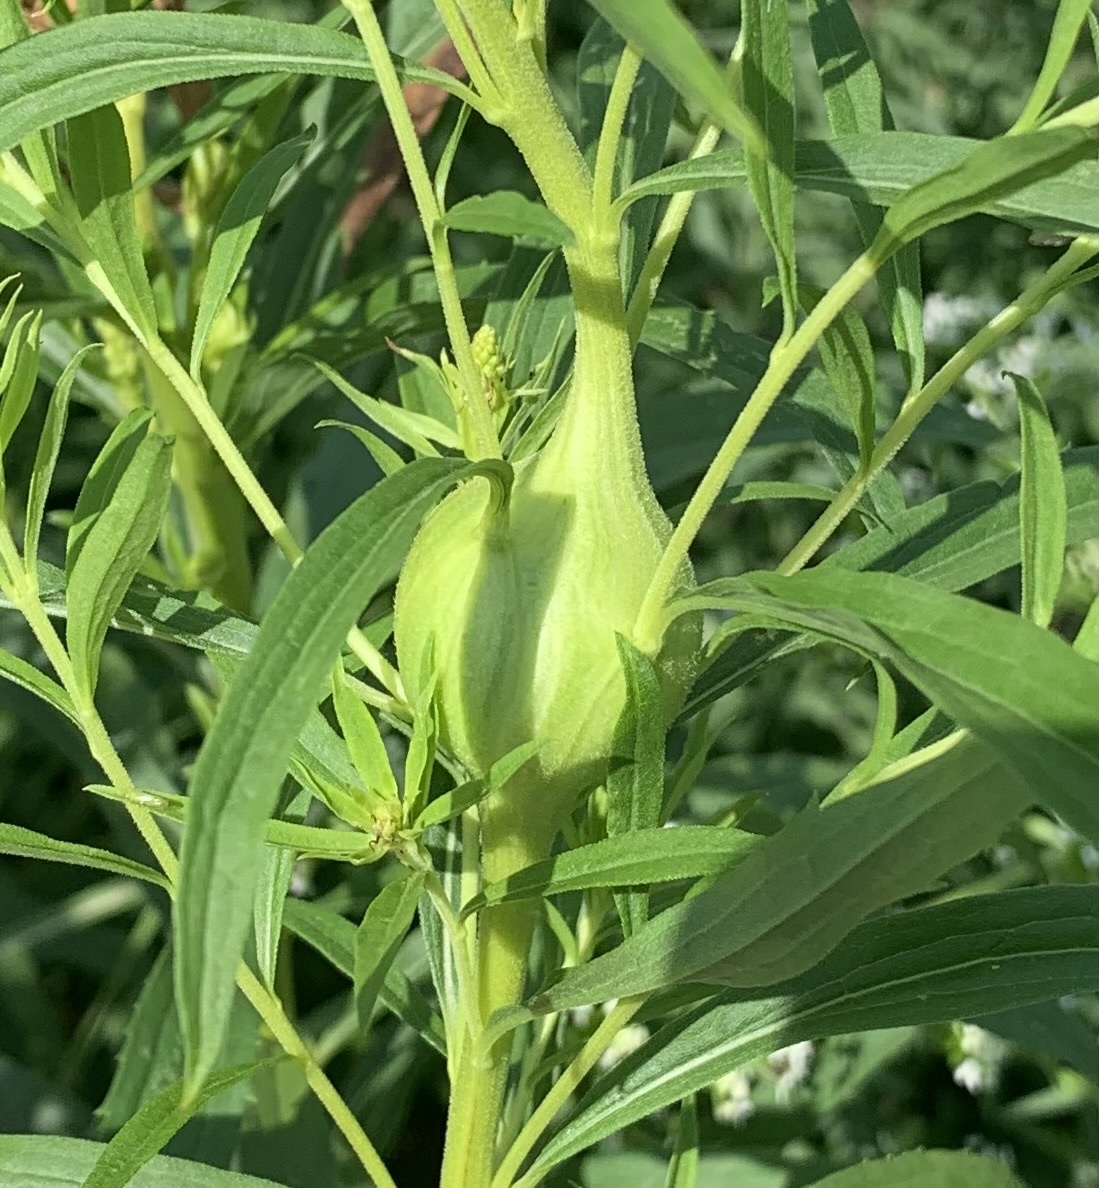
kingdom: Animalia
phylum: Arthropoda
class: Insecta
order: Diptera
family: Tephritidae
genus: Eurosta
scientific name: Eurosta solidaginis
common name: Goldenrod gall fly
